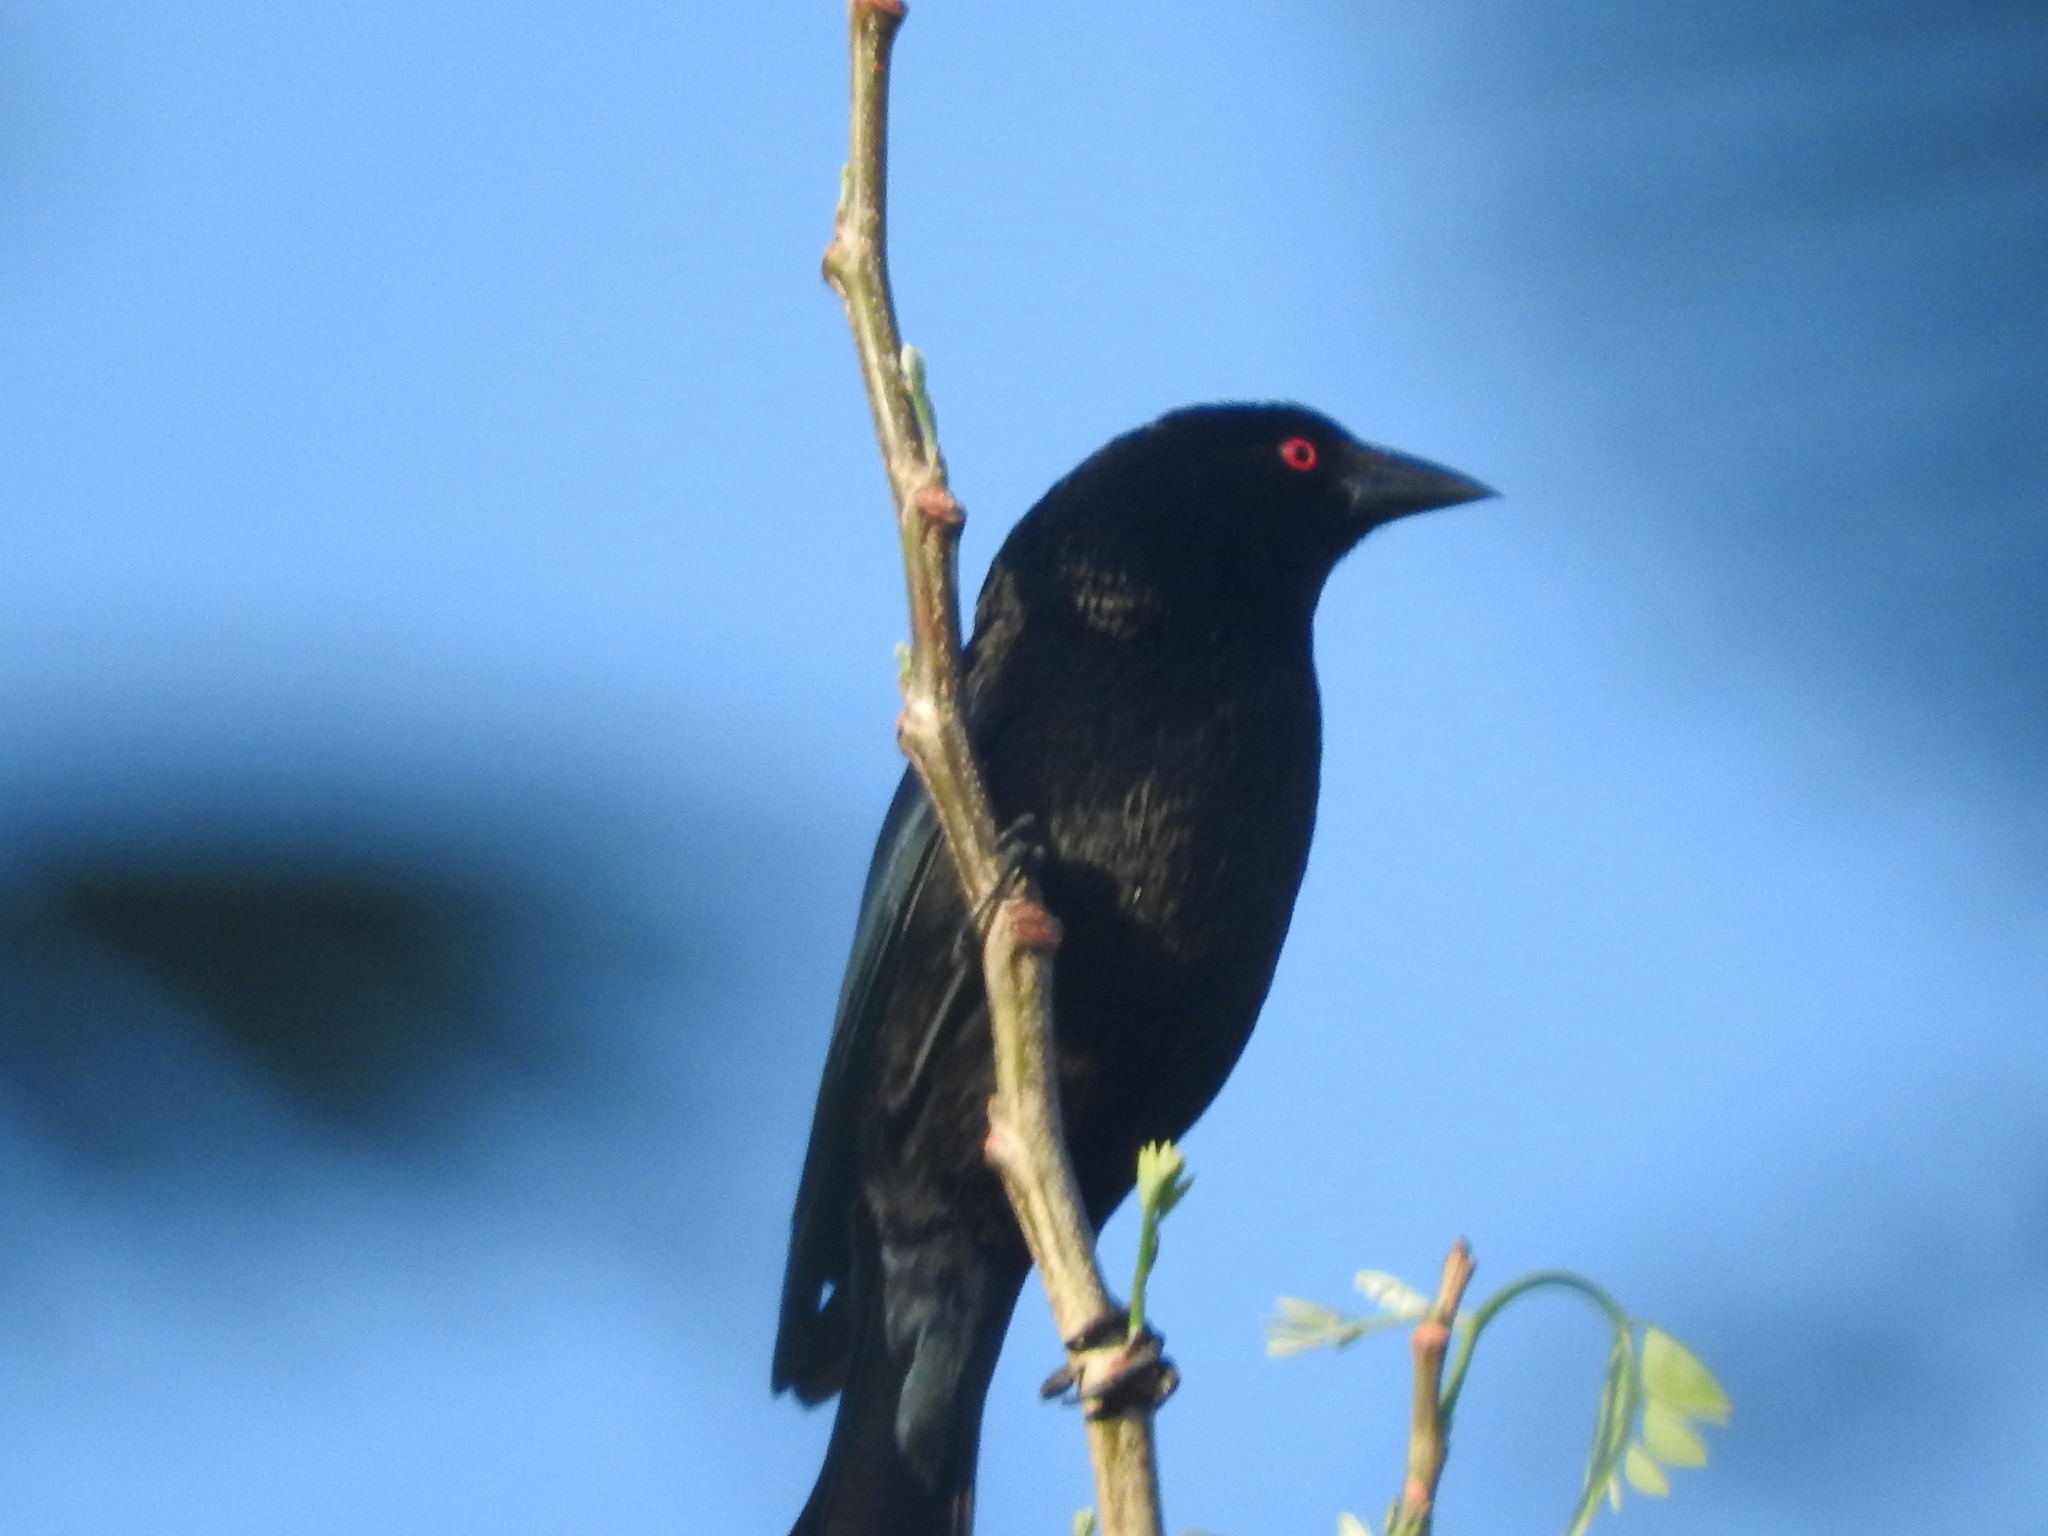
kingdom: Animalia
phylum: Chordata
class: Aves
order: Passeriformes
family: Icteridae
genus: Molothrus
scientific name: Molothrus aeneus
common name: Bronzed cowbird
